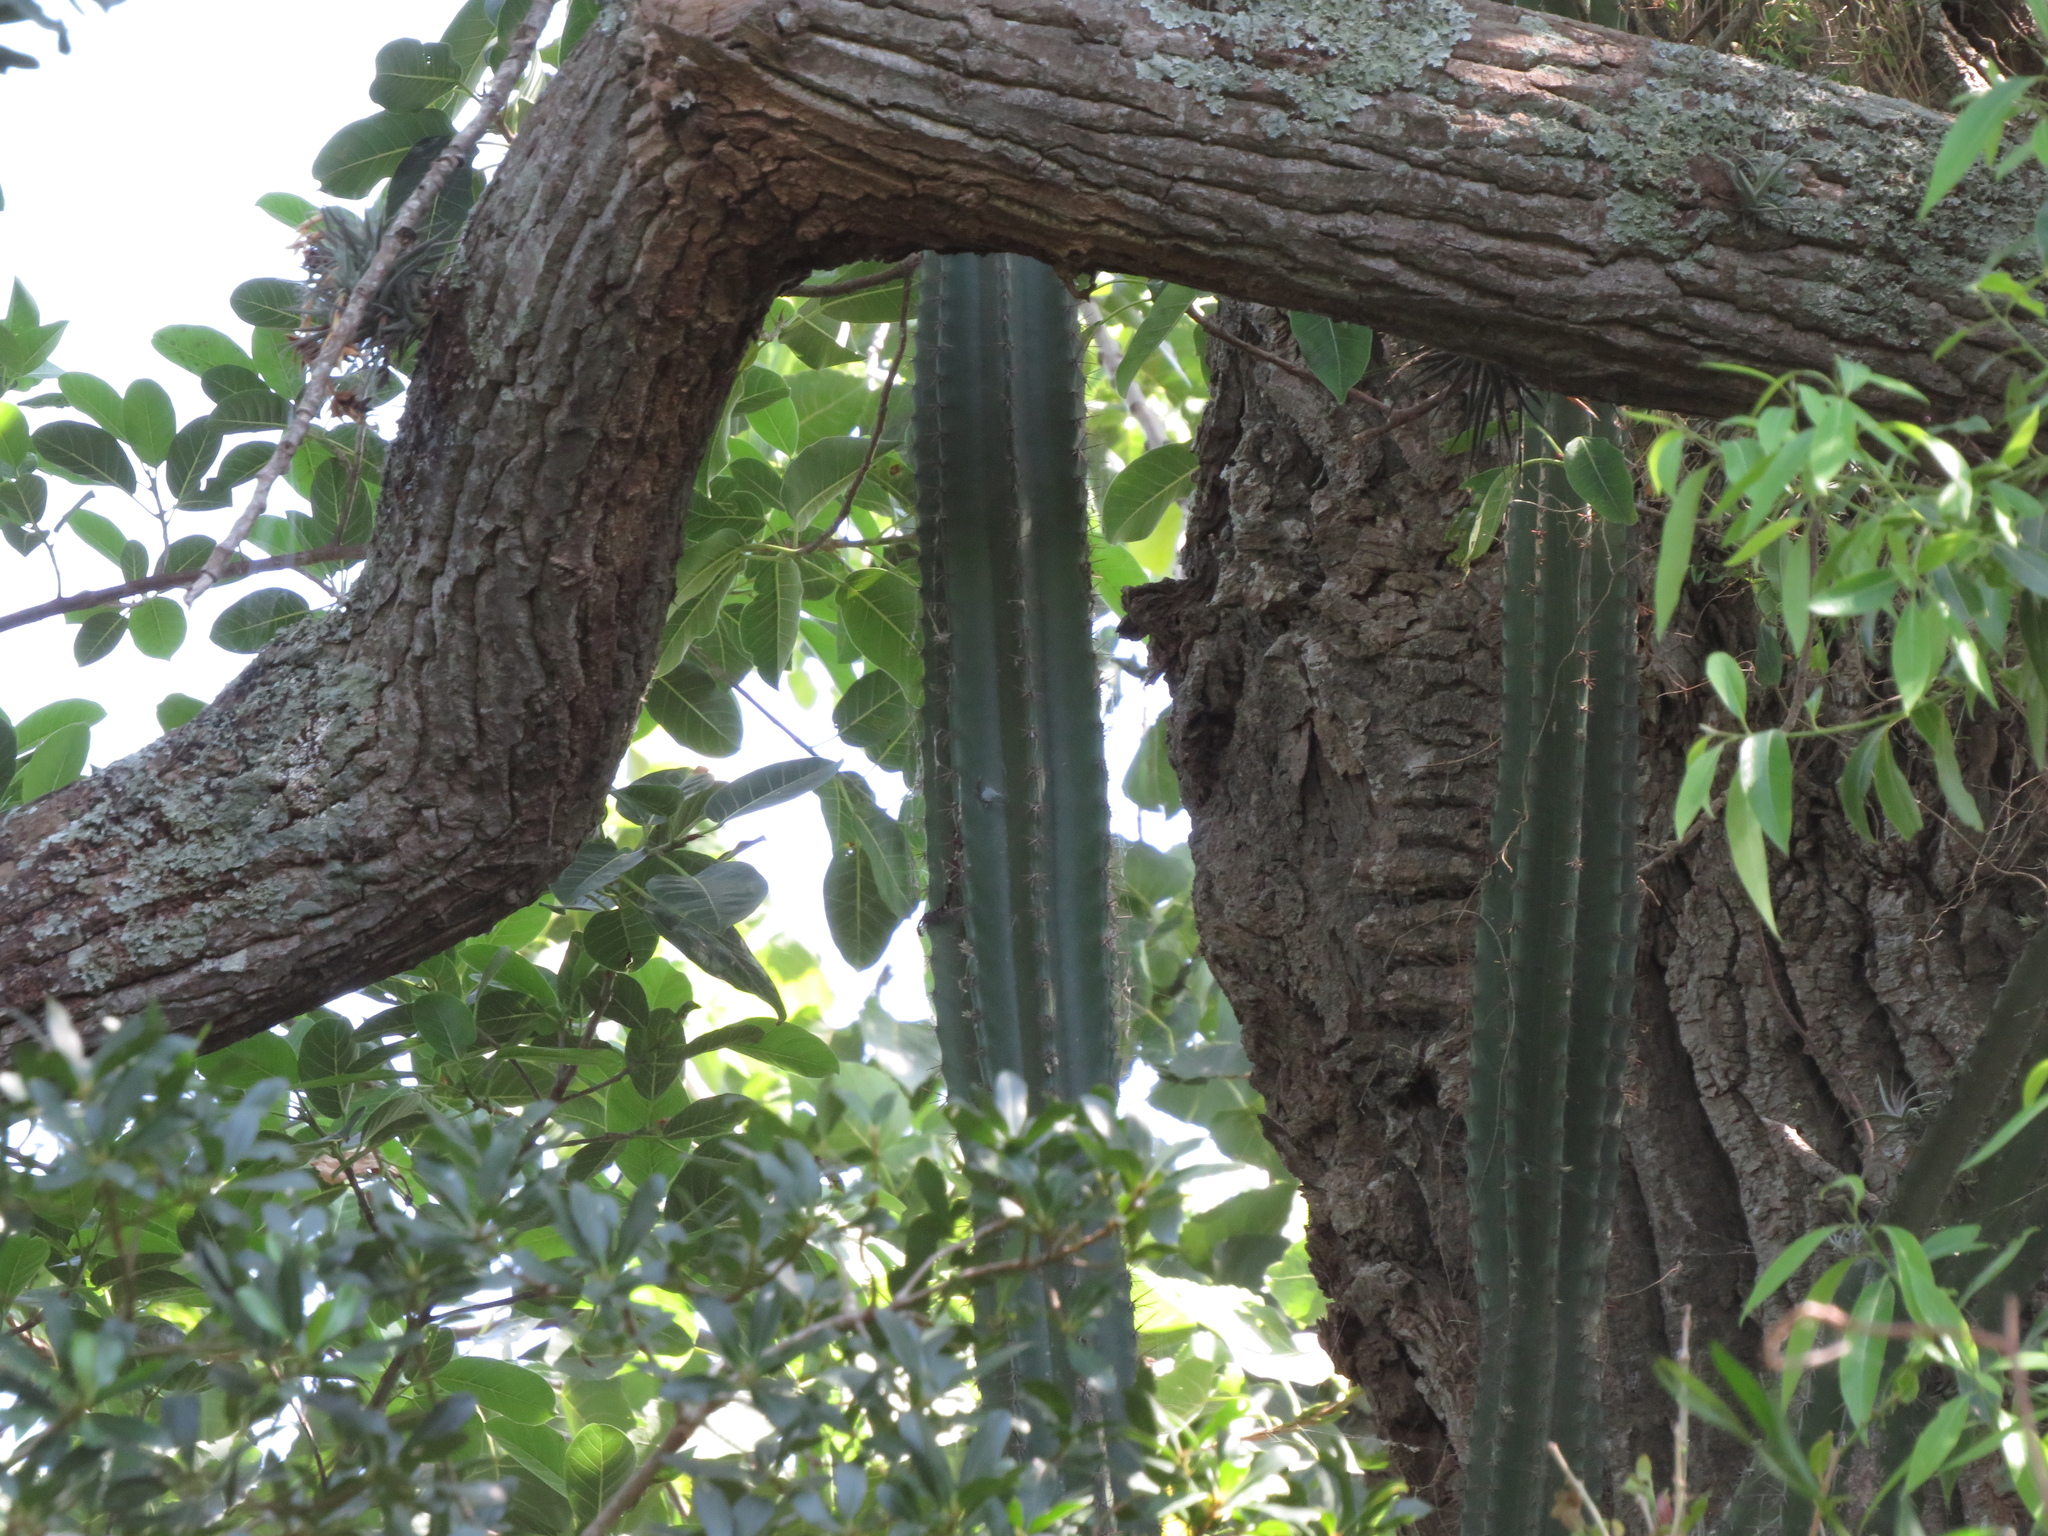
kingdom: Plantae
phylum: Tracheophyta
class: Magnoliopsida
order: Caryophyllales
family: Cactaceae
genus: Cereus
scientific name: Cereus hildmannianus
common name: Hedge cactus
